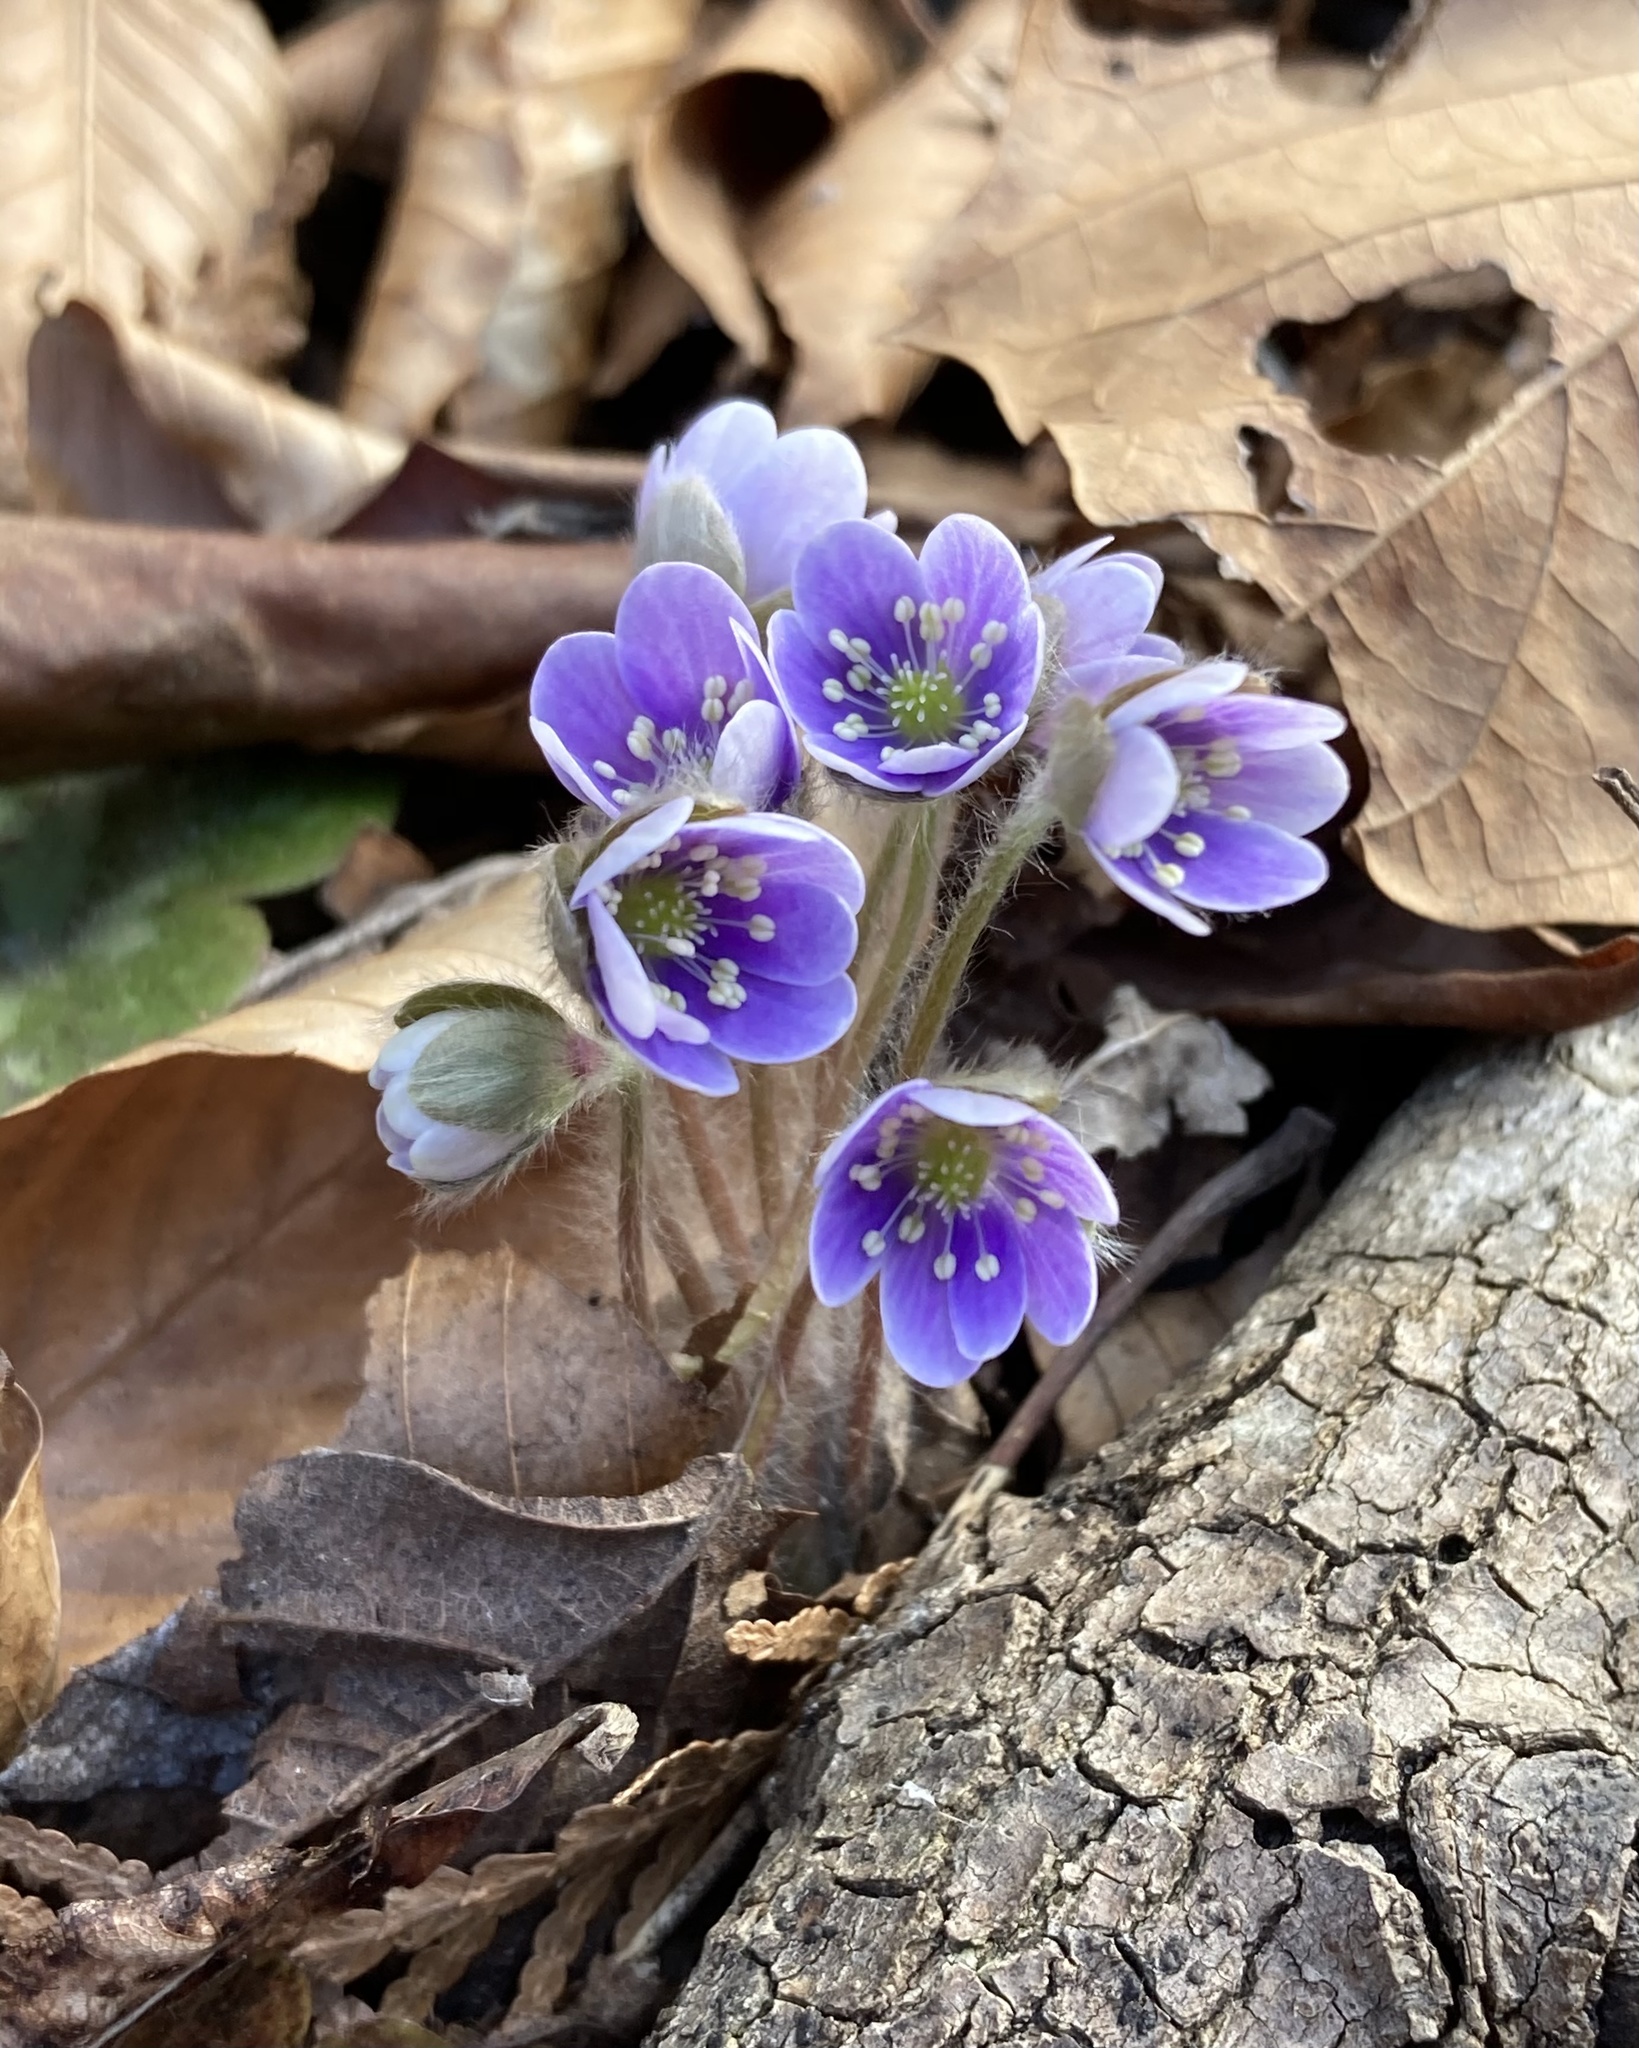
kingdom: Plantae
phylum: Tracheophyta
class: Magnoliopsida
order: Ranunculales
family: Ranunculaceae
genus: Hepatica
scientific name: Hepatica americana
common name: American hepatica
